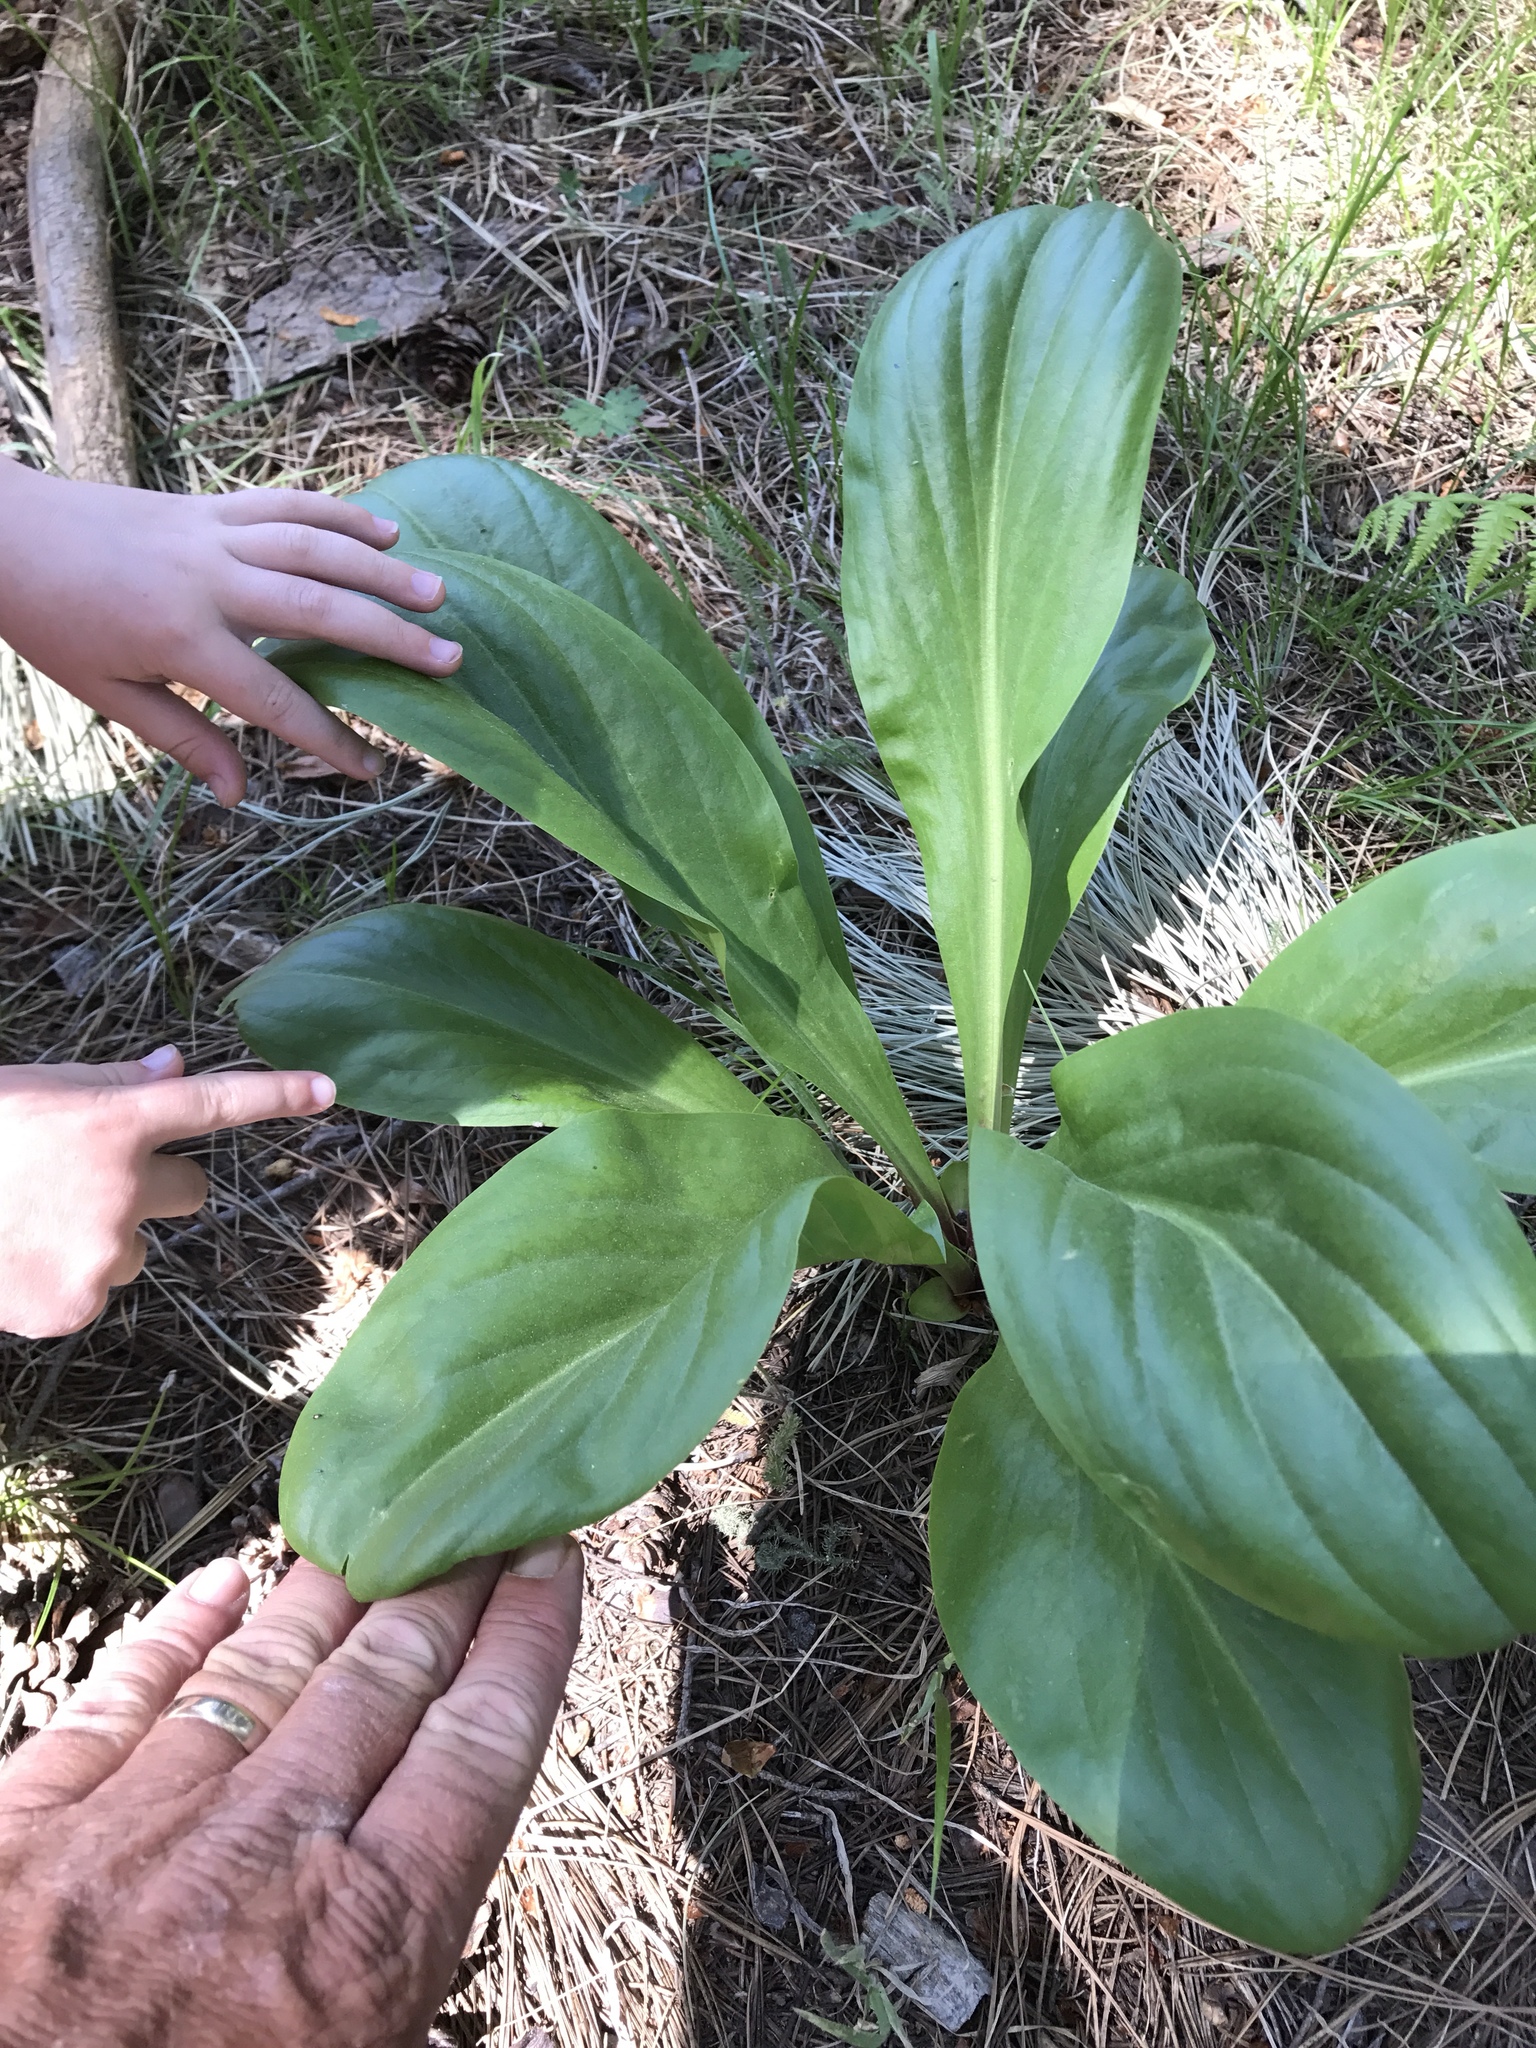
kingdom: Plantae
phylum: Tracheophyta
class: Magnoliopsida
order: Gentianales
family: Gentianaceae
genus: Frasera
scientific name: Frasera speciosa
